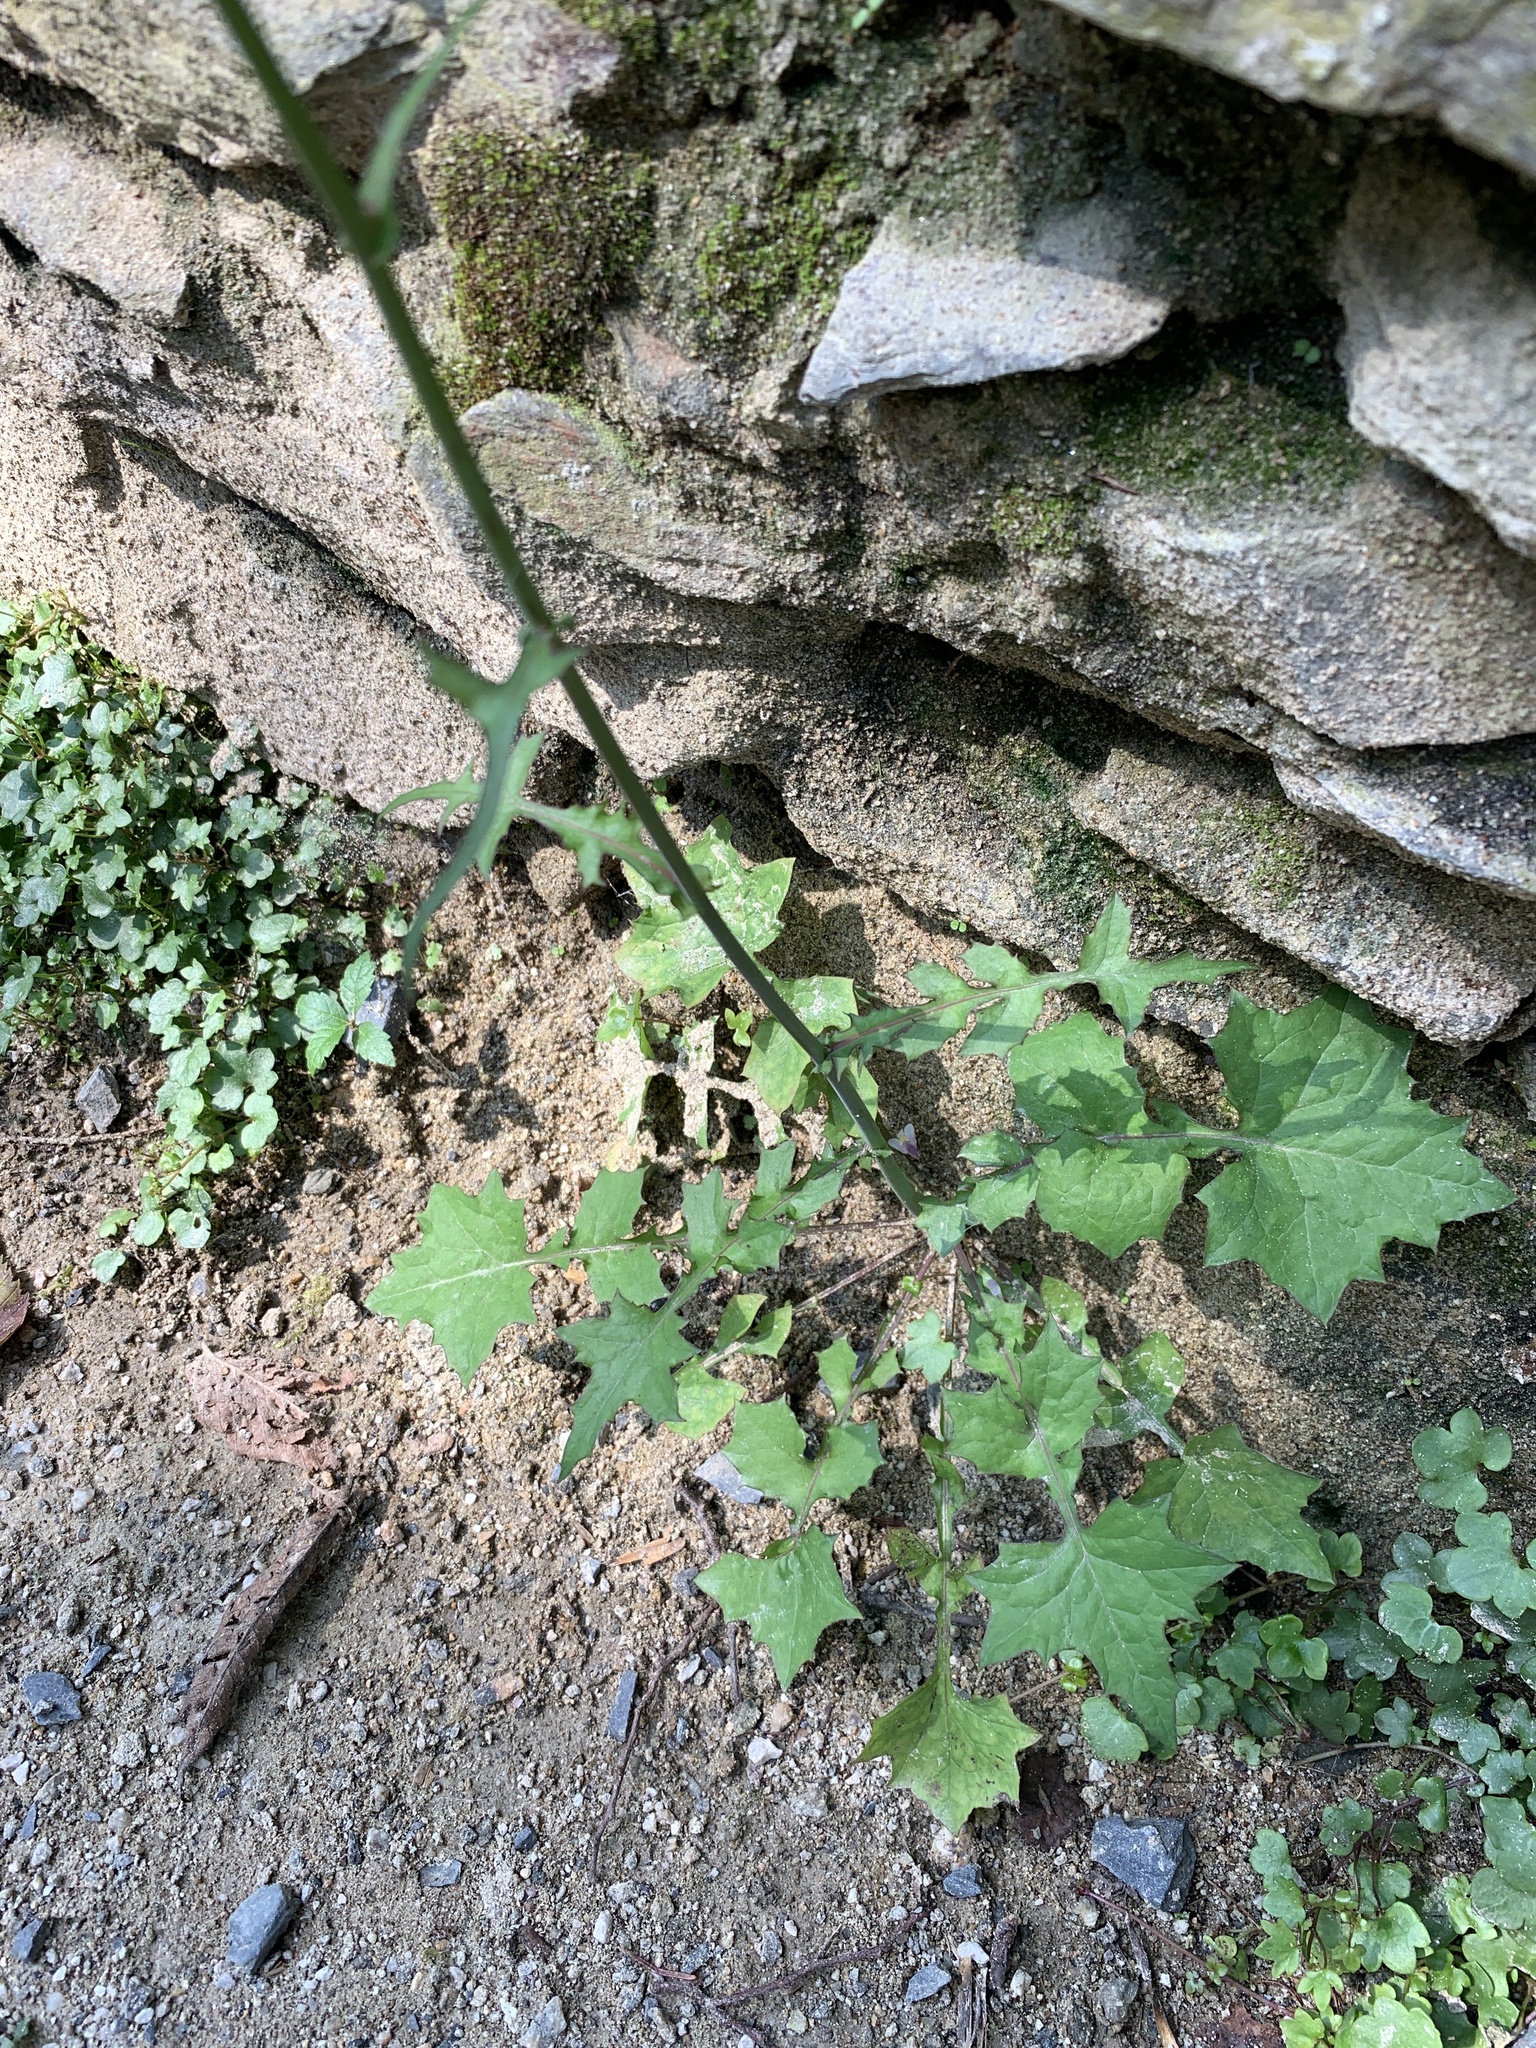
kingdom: Plantae
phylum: Tracheophyta
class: Magnoliopsida
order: Asterales
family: Asteraceae
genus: Mycelis
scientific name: Mycelis muralis
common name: Wall lettuce
